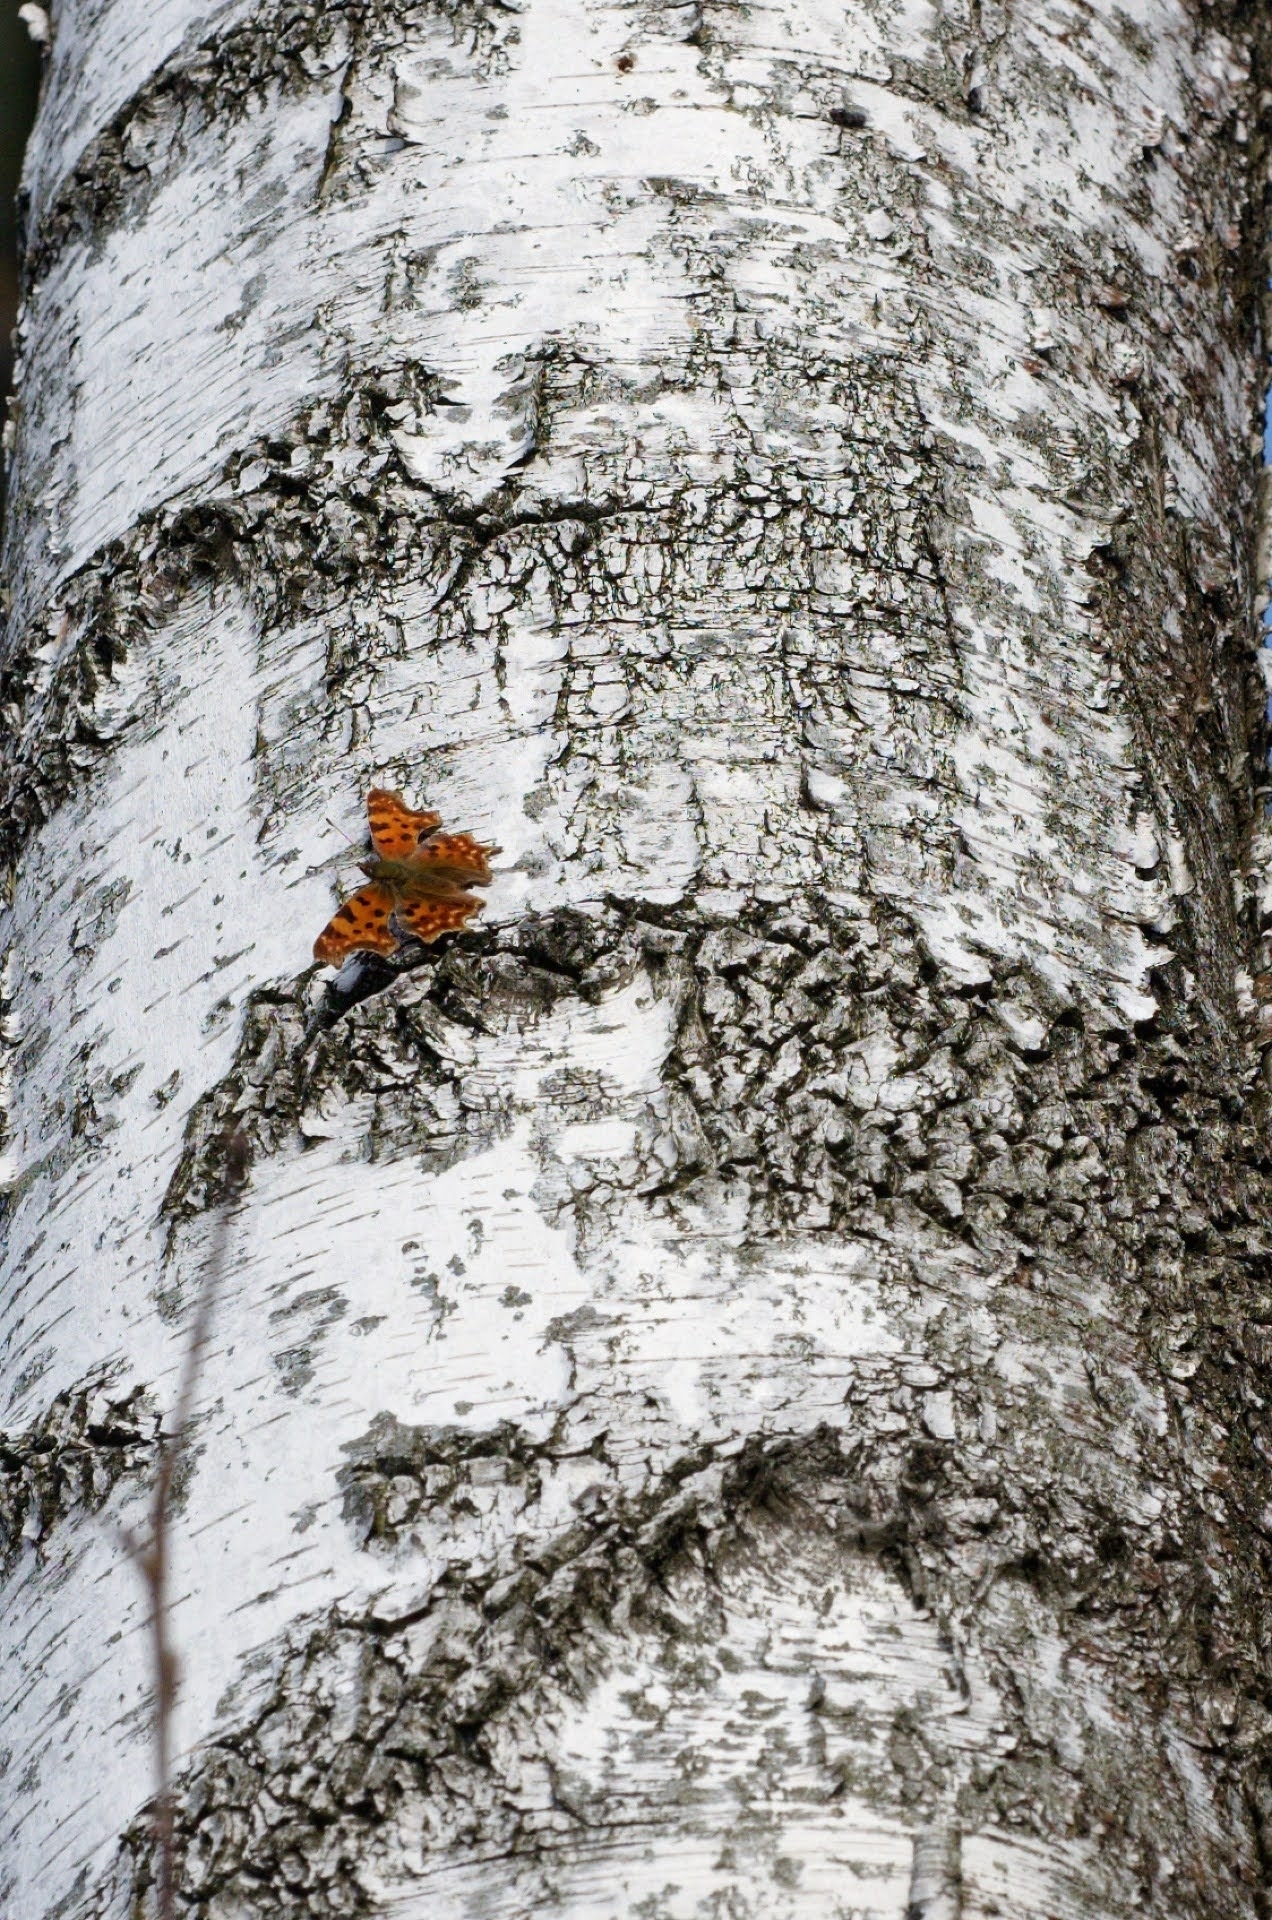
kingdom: Animalia
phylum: Arthropoda
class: Insecta
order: Lepidoptera
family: Nymphalidae
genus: Polygonia
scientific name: Polygonia c-album
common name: Comma
